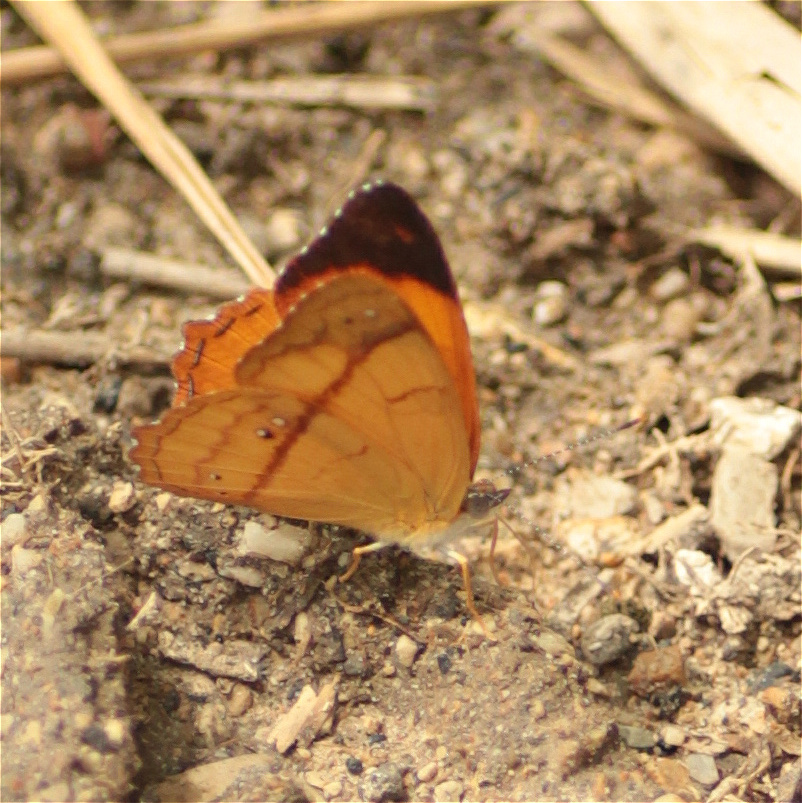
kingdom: Animalia
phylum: Arthropoda
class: Insecta
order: Lepidoptera
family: Nymphalidae
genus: Nica
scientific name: Nica flavilla
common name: Mandarin nica
